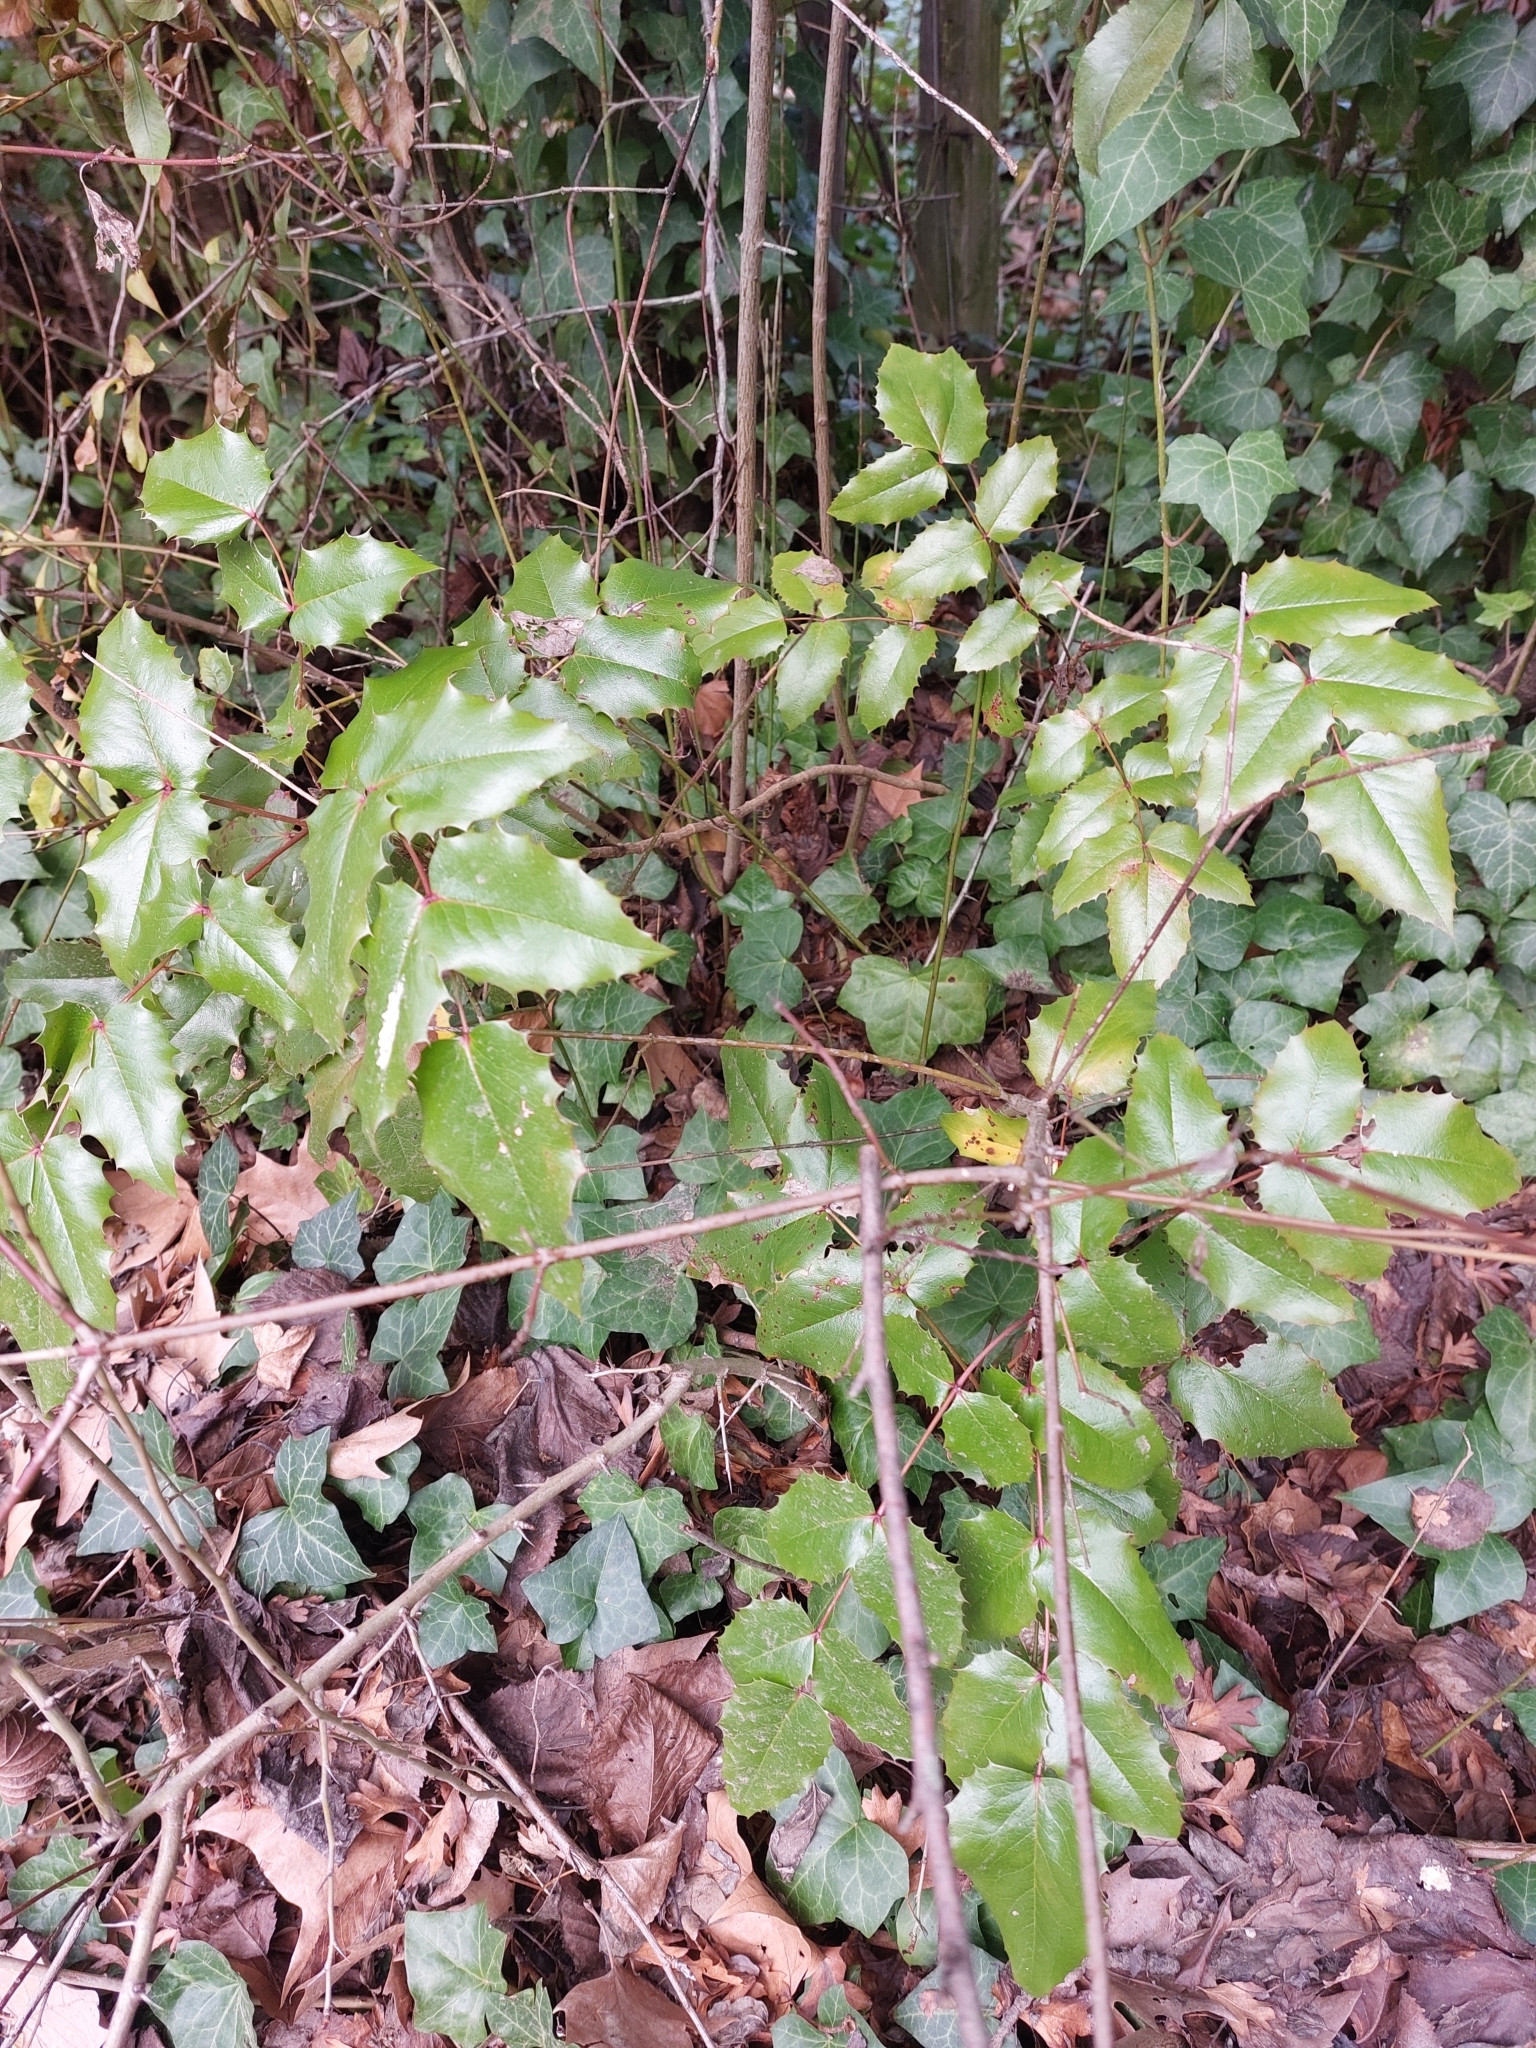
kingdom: Plantae
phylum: Tracheophyta
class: Magnoliopsida
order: Ranunculales
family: Berberidaceae
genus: Mahonia
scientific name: Mahonia aquifolium
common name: Oregon-grape
